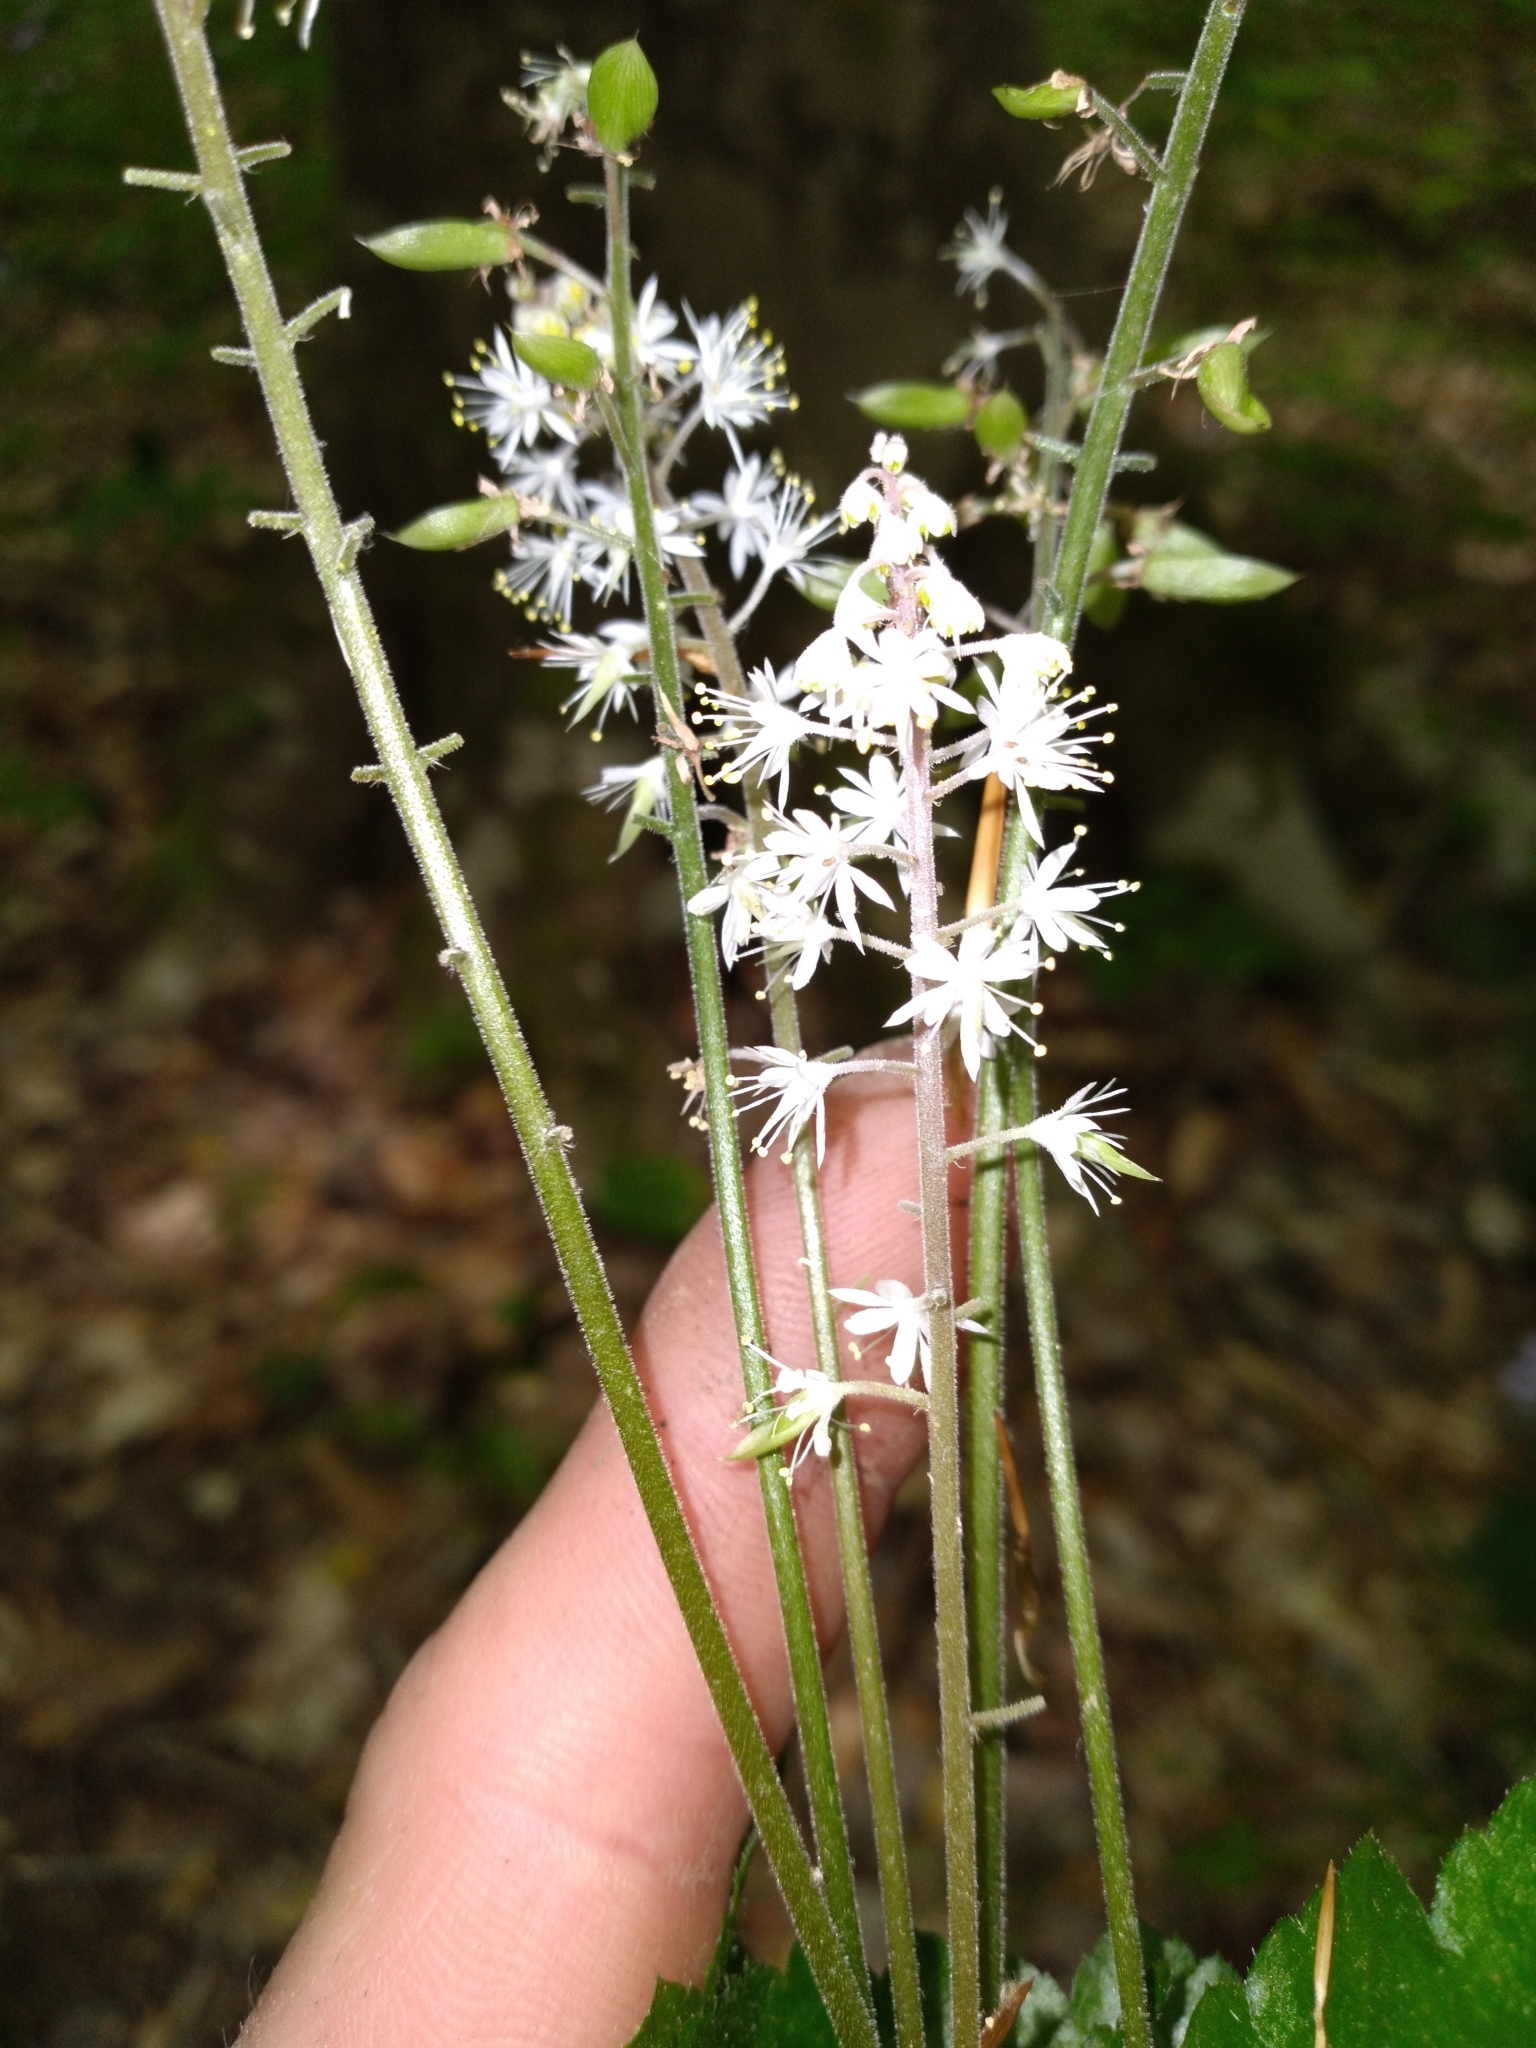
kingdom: Plantae
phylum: Tracheophyta
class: Magnoliopsida
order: Saxifragales
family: Saxifragaceae
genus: Tiarella
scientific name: Tiarella wherryi
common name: Tufted foamflower
